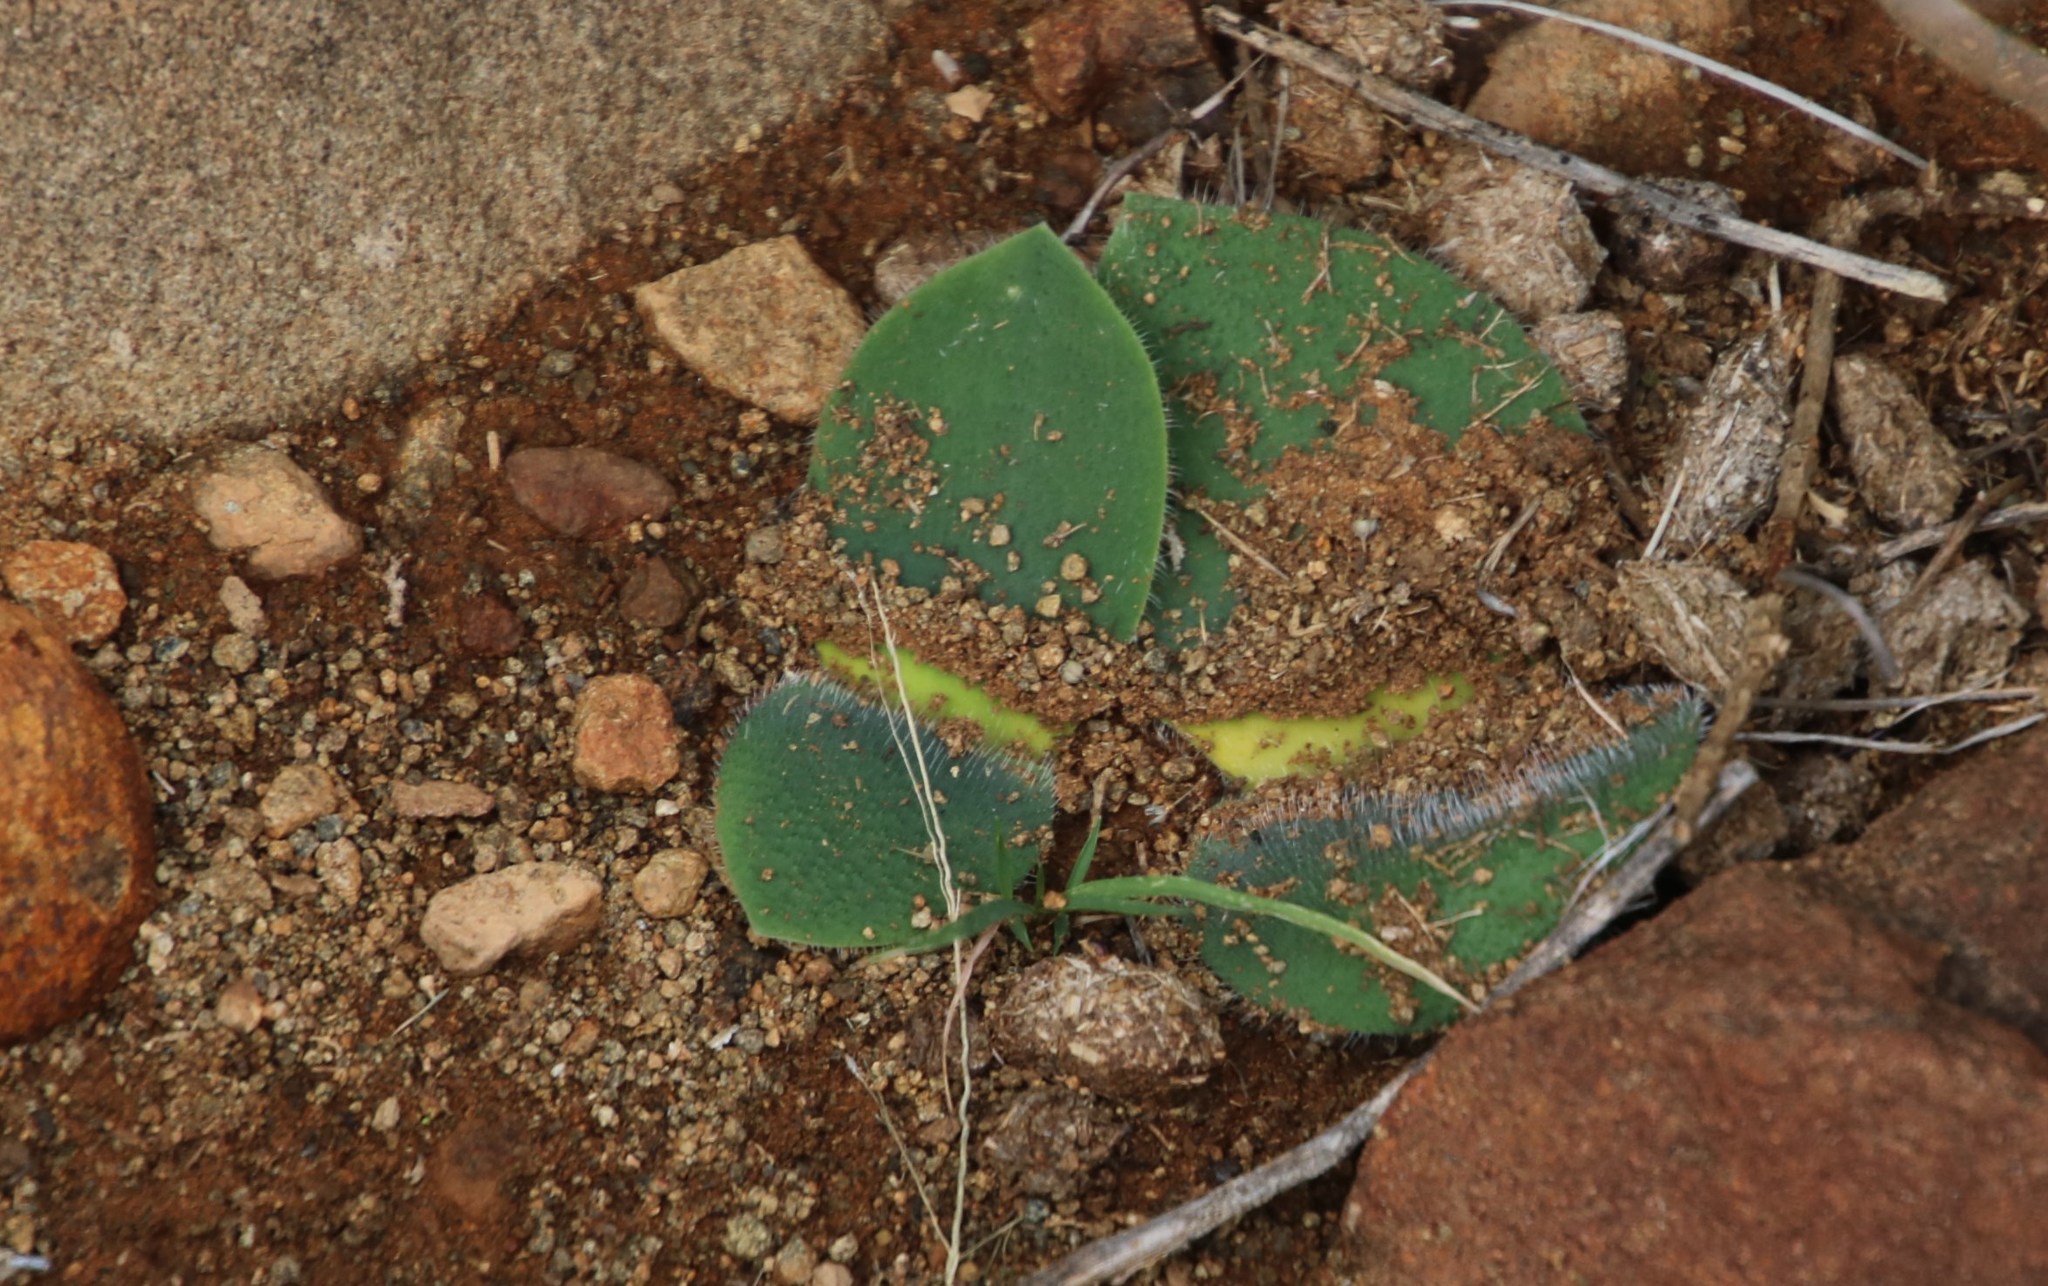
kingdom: Plantae
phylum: Tracheophyta
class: Liliopsida
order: Asparagales
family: Amaryllidaceae
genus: Haemanthus
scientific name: Haemanthus humilis
